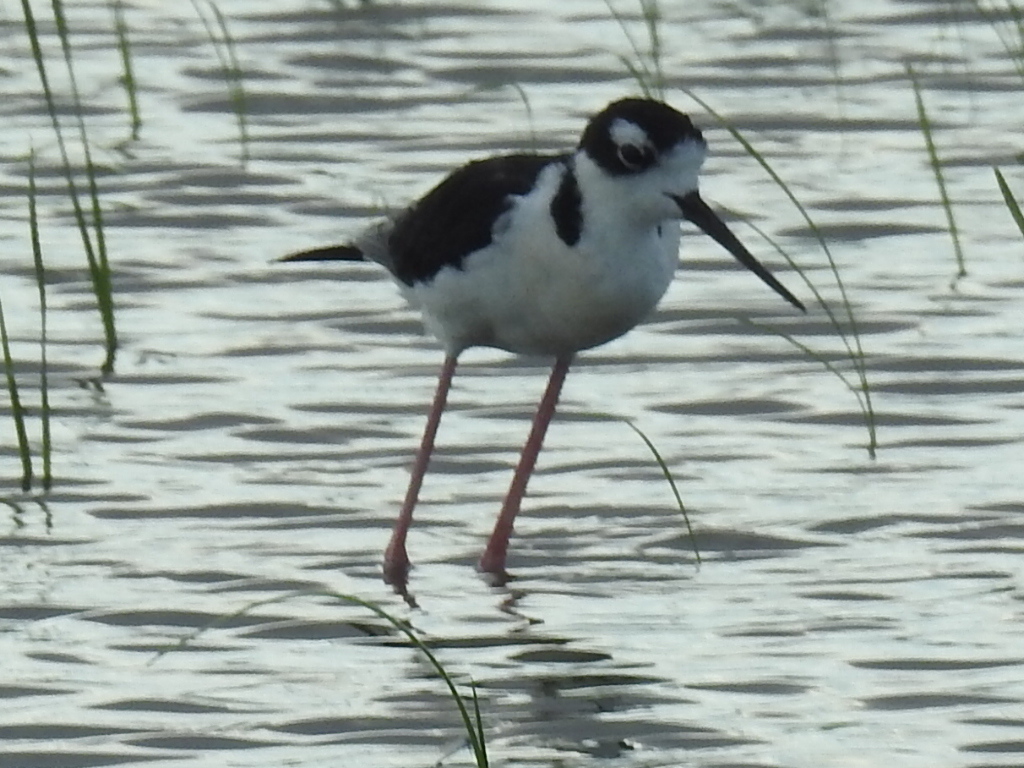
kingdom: Animalia
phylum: Chordata
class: Aves
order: Charadriiformes
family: Recurvirostridae
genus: Himantopus
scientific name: Himantopus mexicanus
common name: Black-necked stilt
